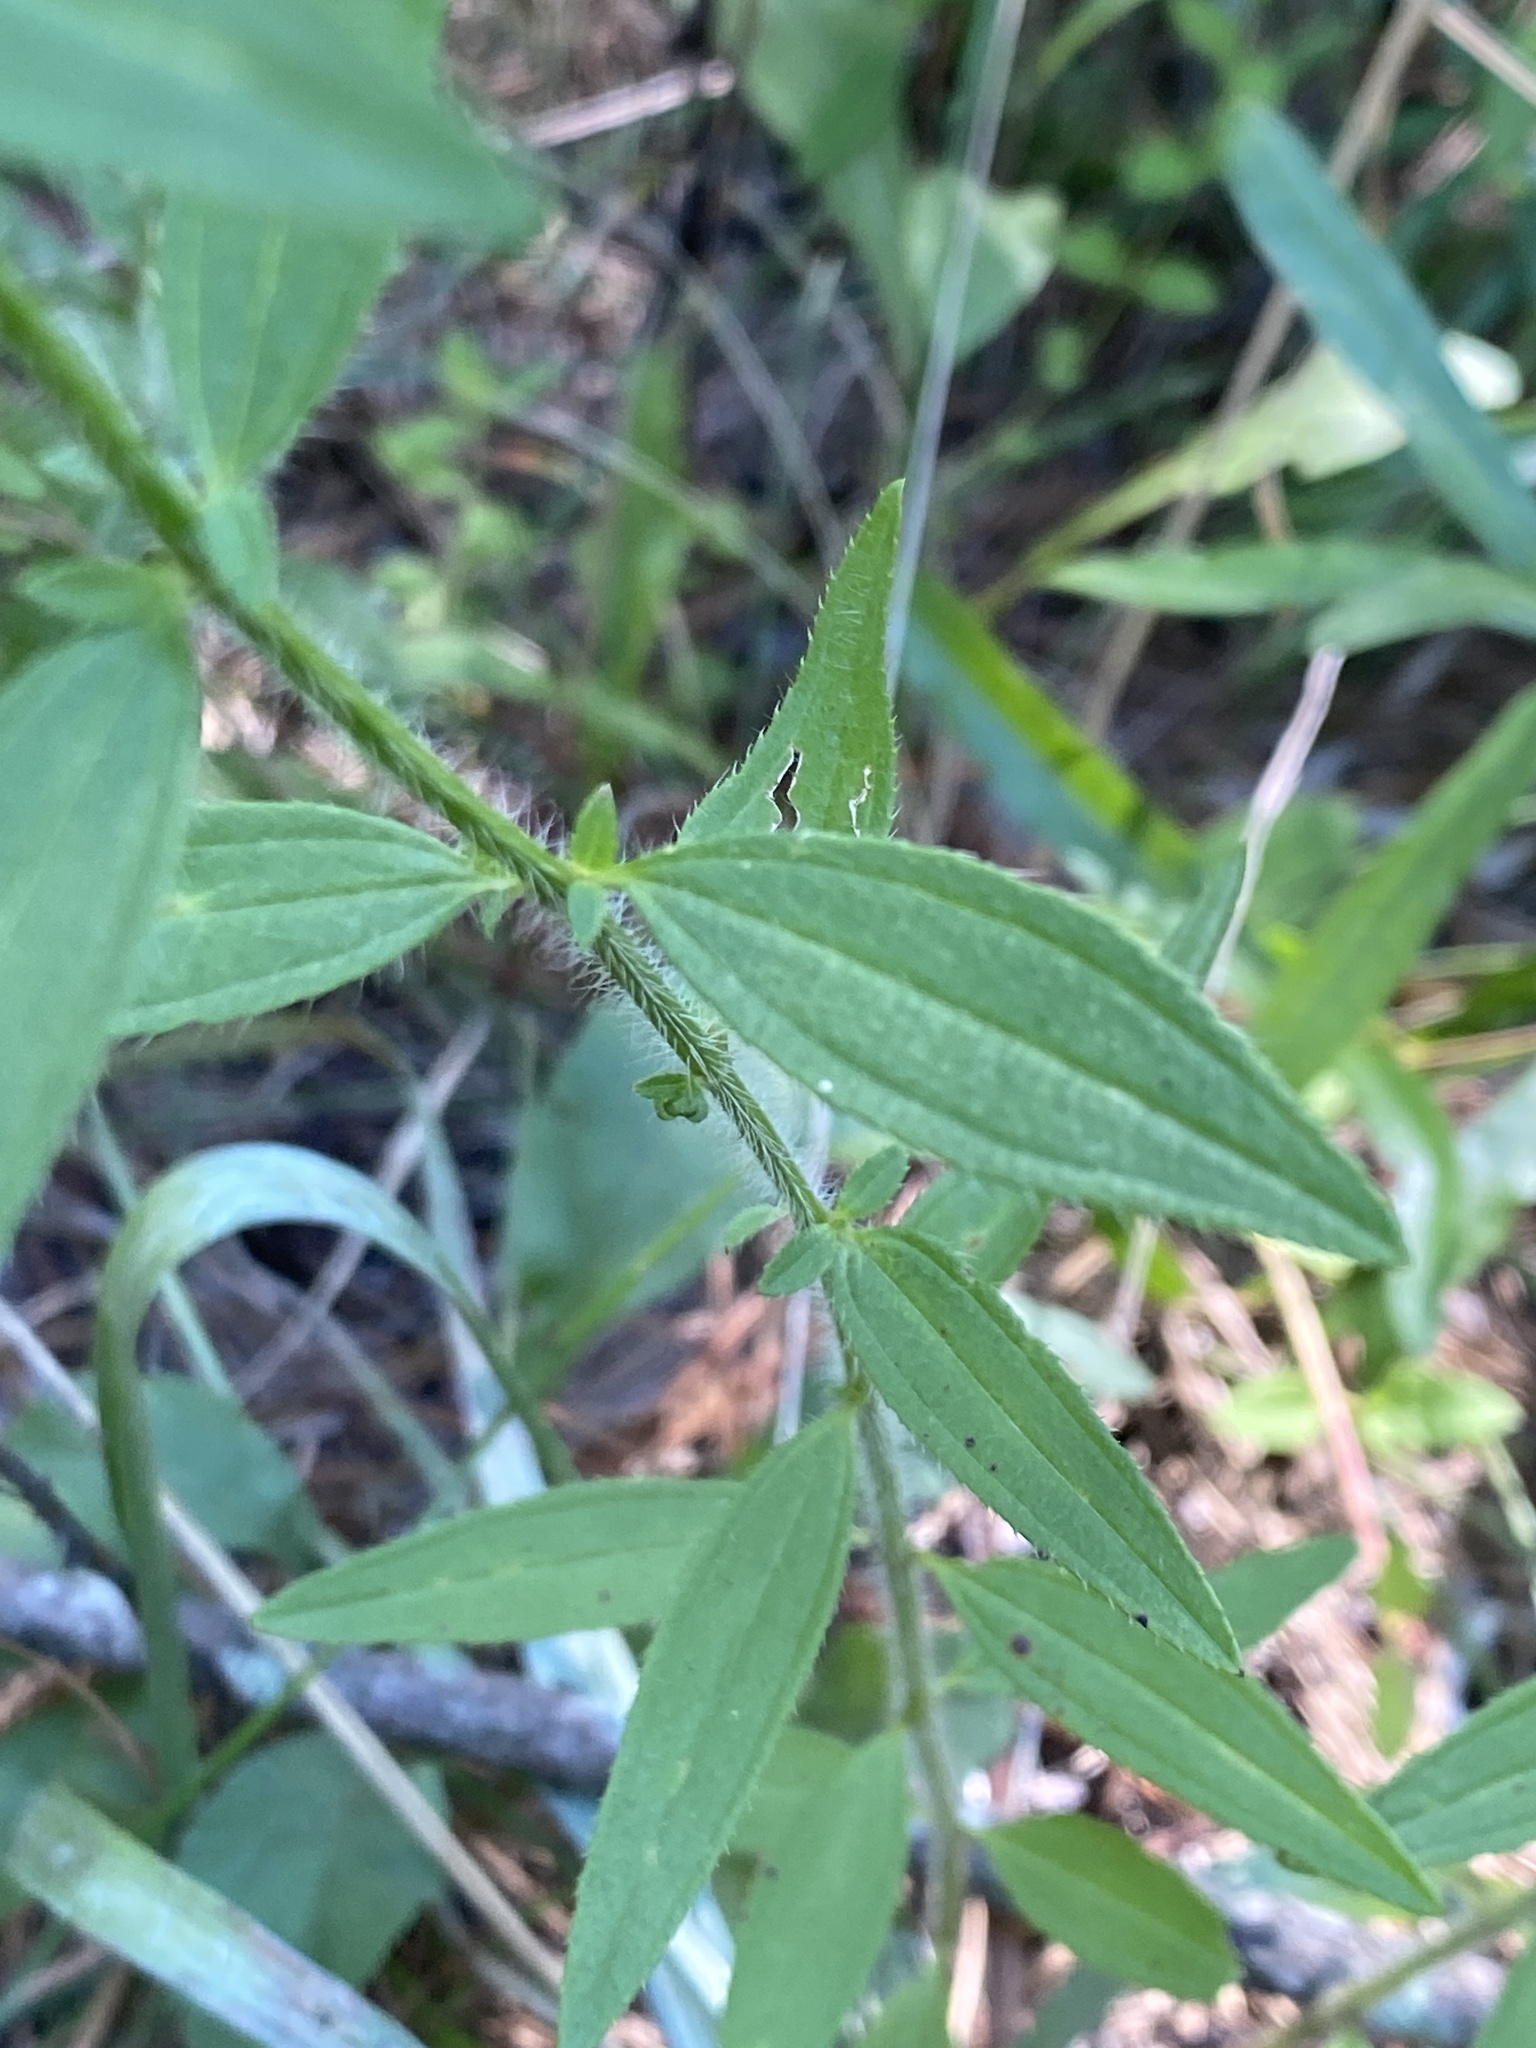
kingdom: Plantae
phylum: Tracheophyta
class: Magnoliopsida
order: Myrtales
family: Melastomataceae
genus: Rhexia
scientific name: Rhexia mariana
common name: Dull meadow-pitcher
